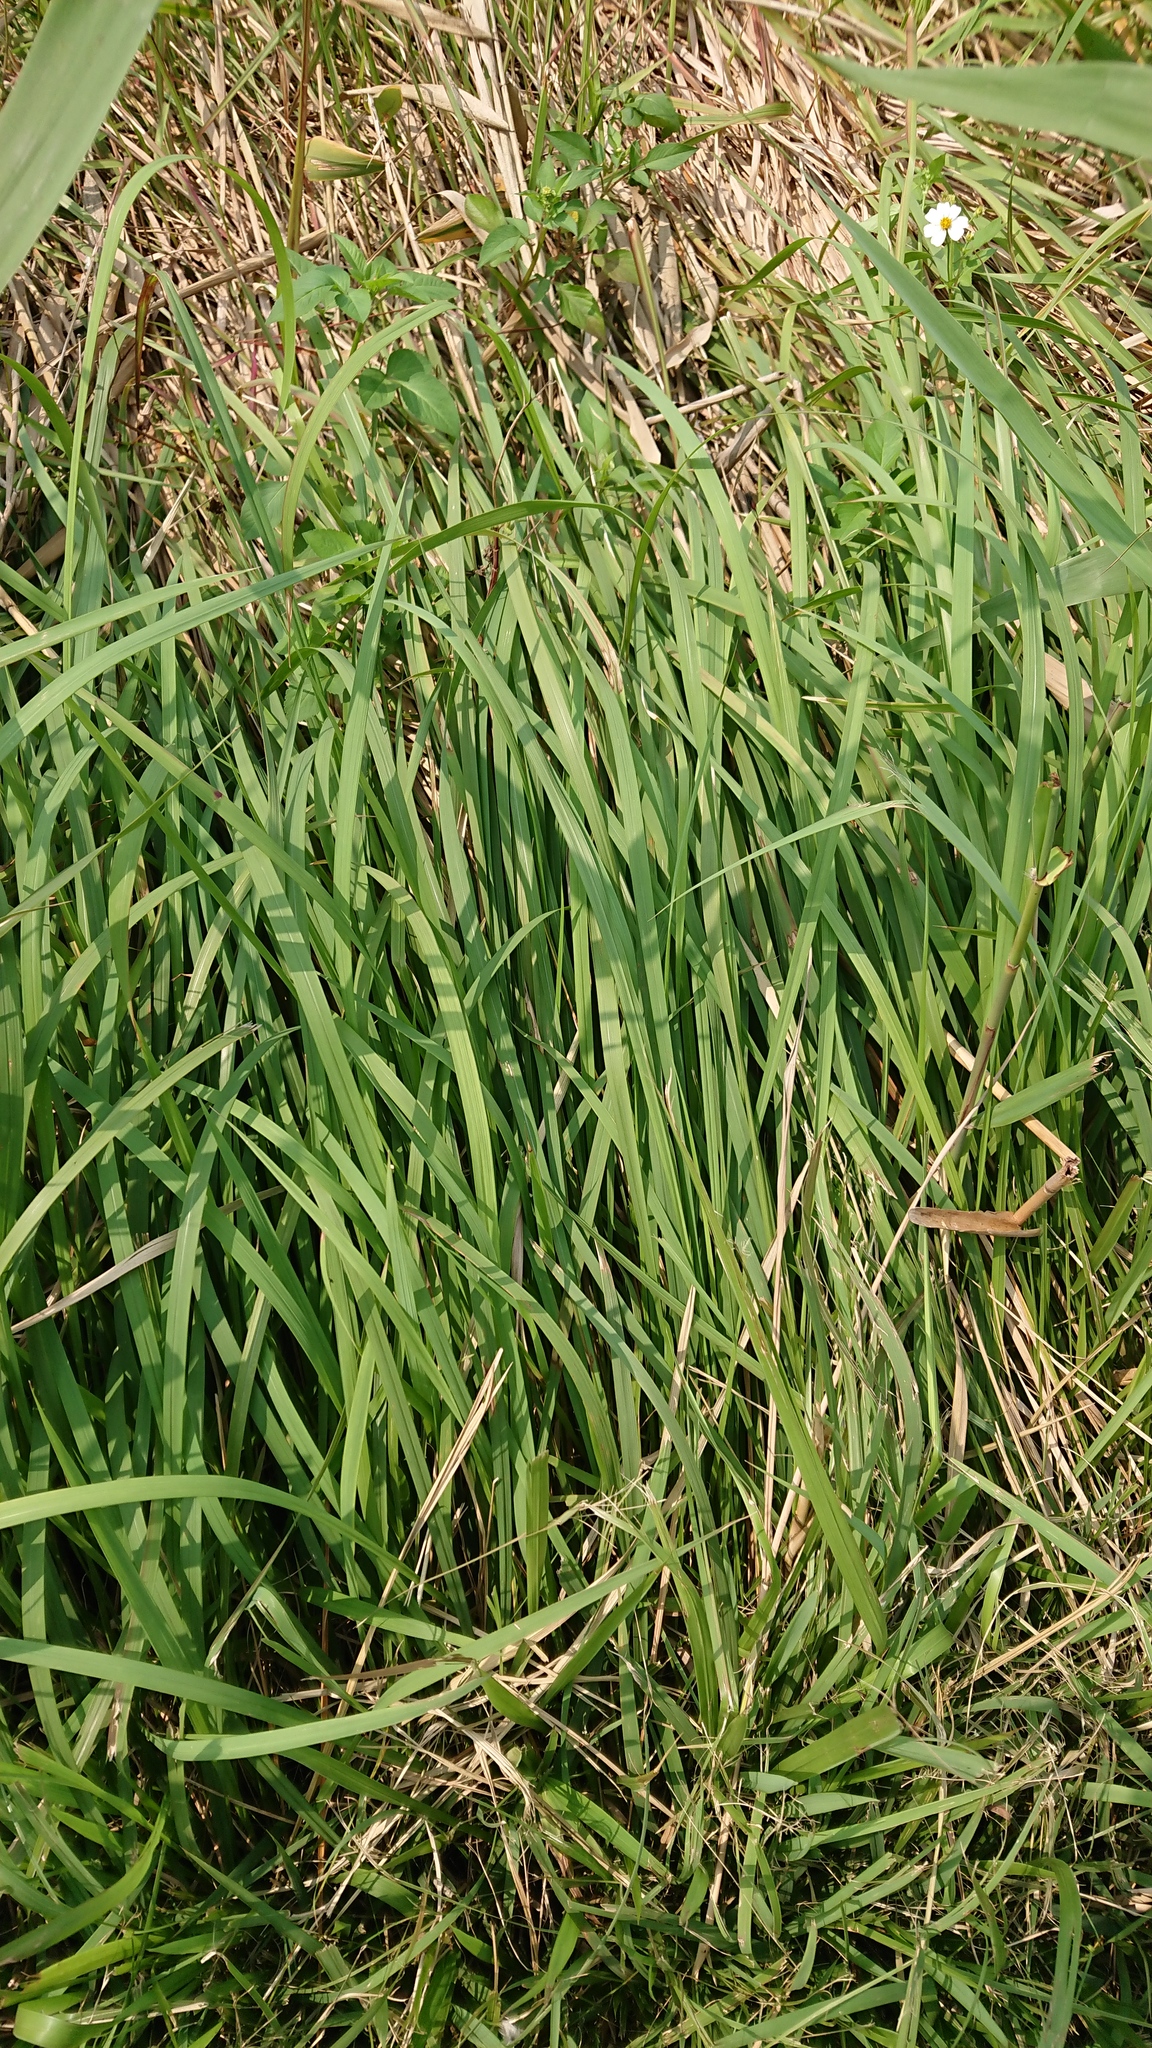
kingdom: Plantae
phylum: Tracheophyta
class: Liliopsida
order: Poales
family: Poaceae
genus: Imperata
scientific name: Imperata cylindrica
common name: Cogongrass
